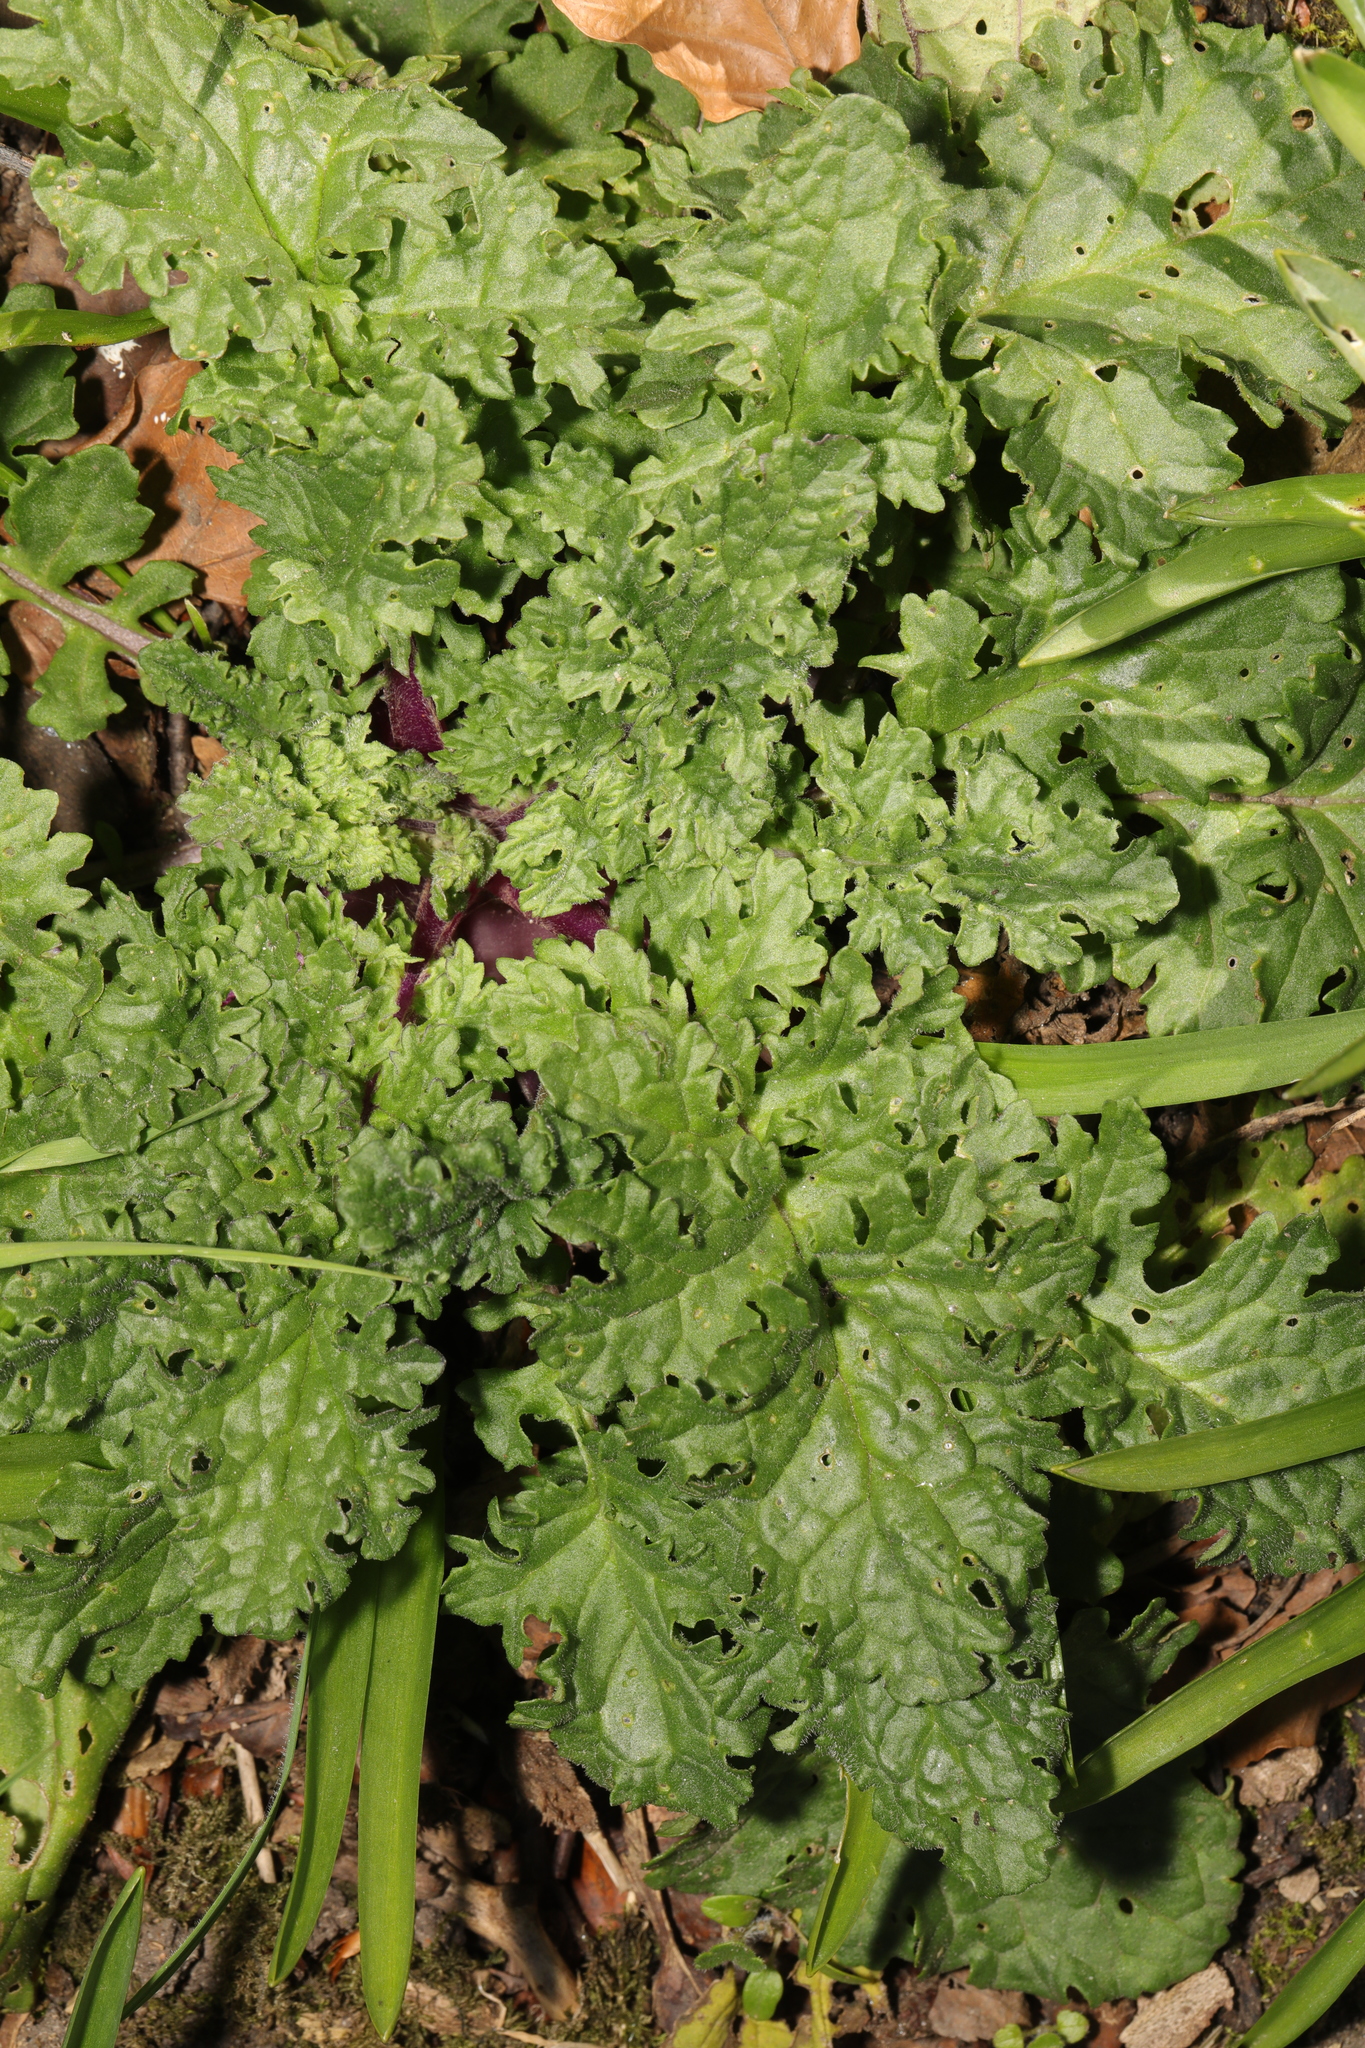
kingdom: Plantae
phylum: Tracheophyta
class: Magnoliopsida
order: Asterales
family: Asteraceae
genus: Jacobaea
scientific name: Jacobaea vulgaris
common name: Stinking willie
